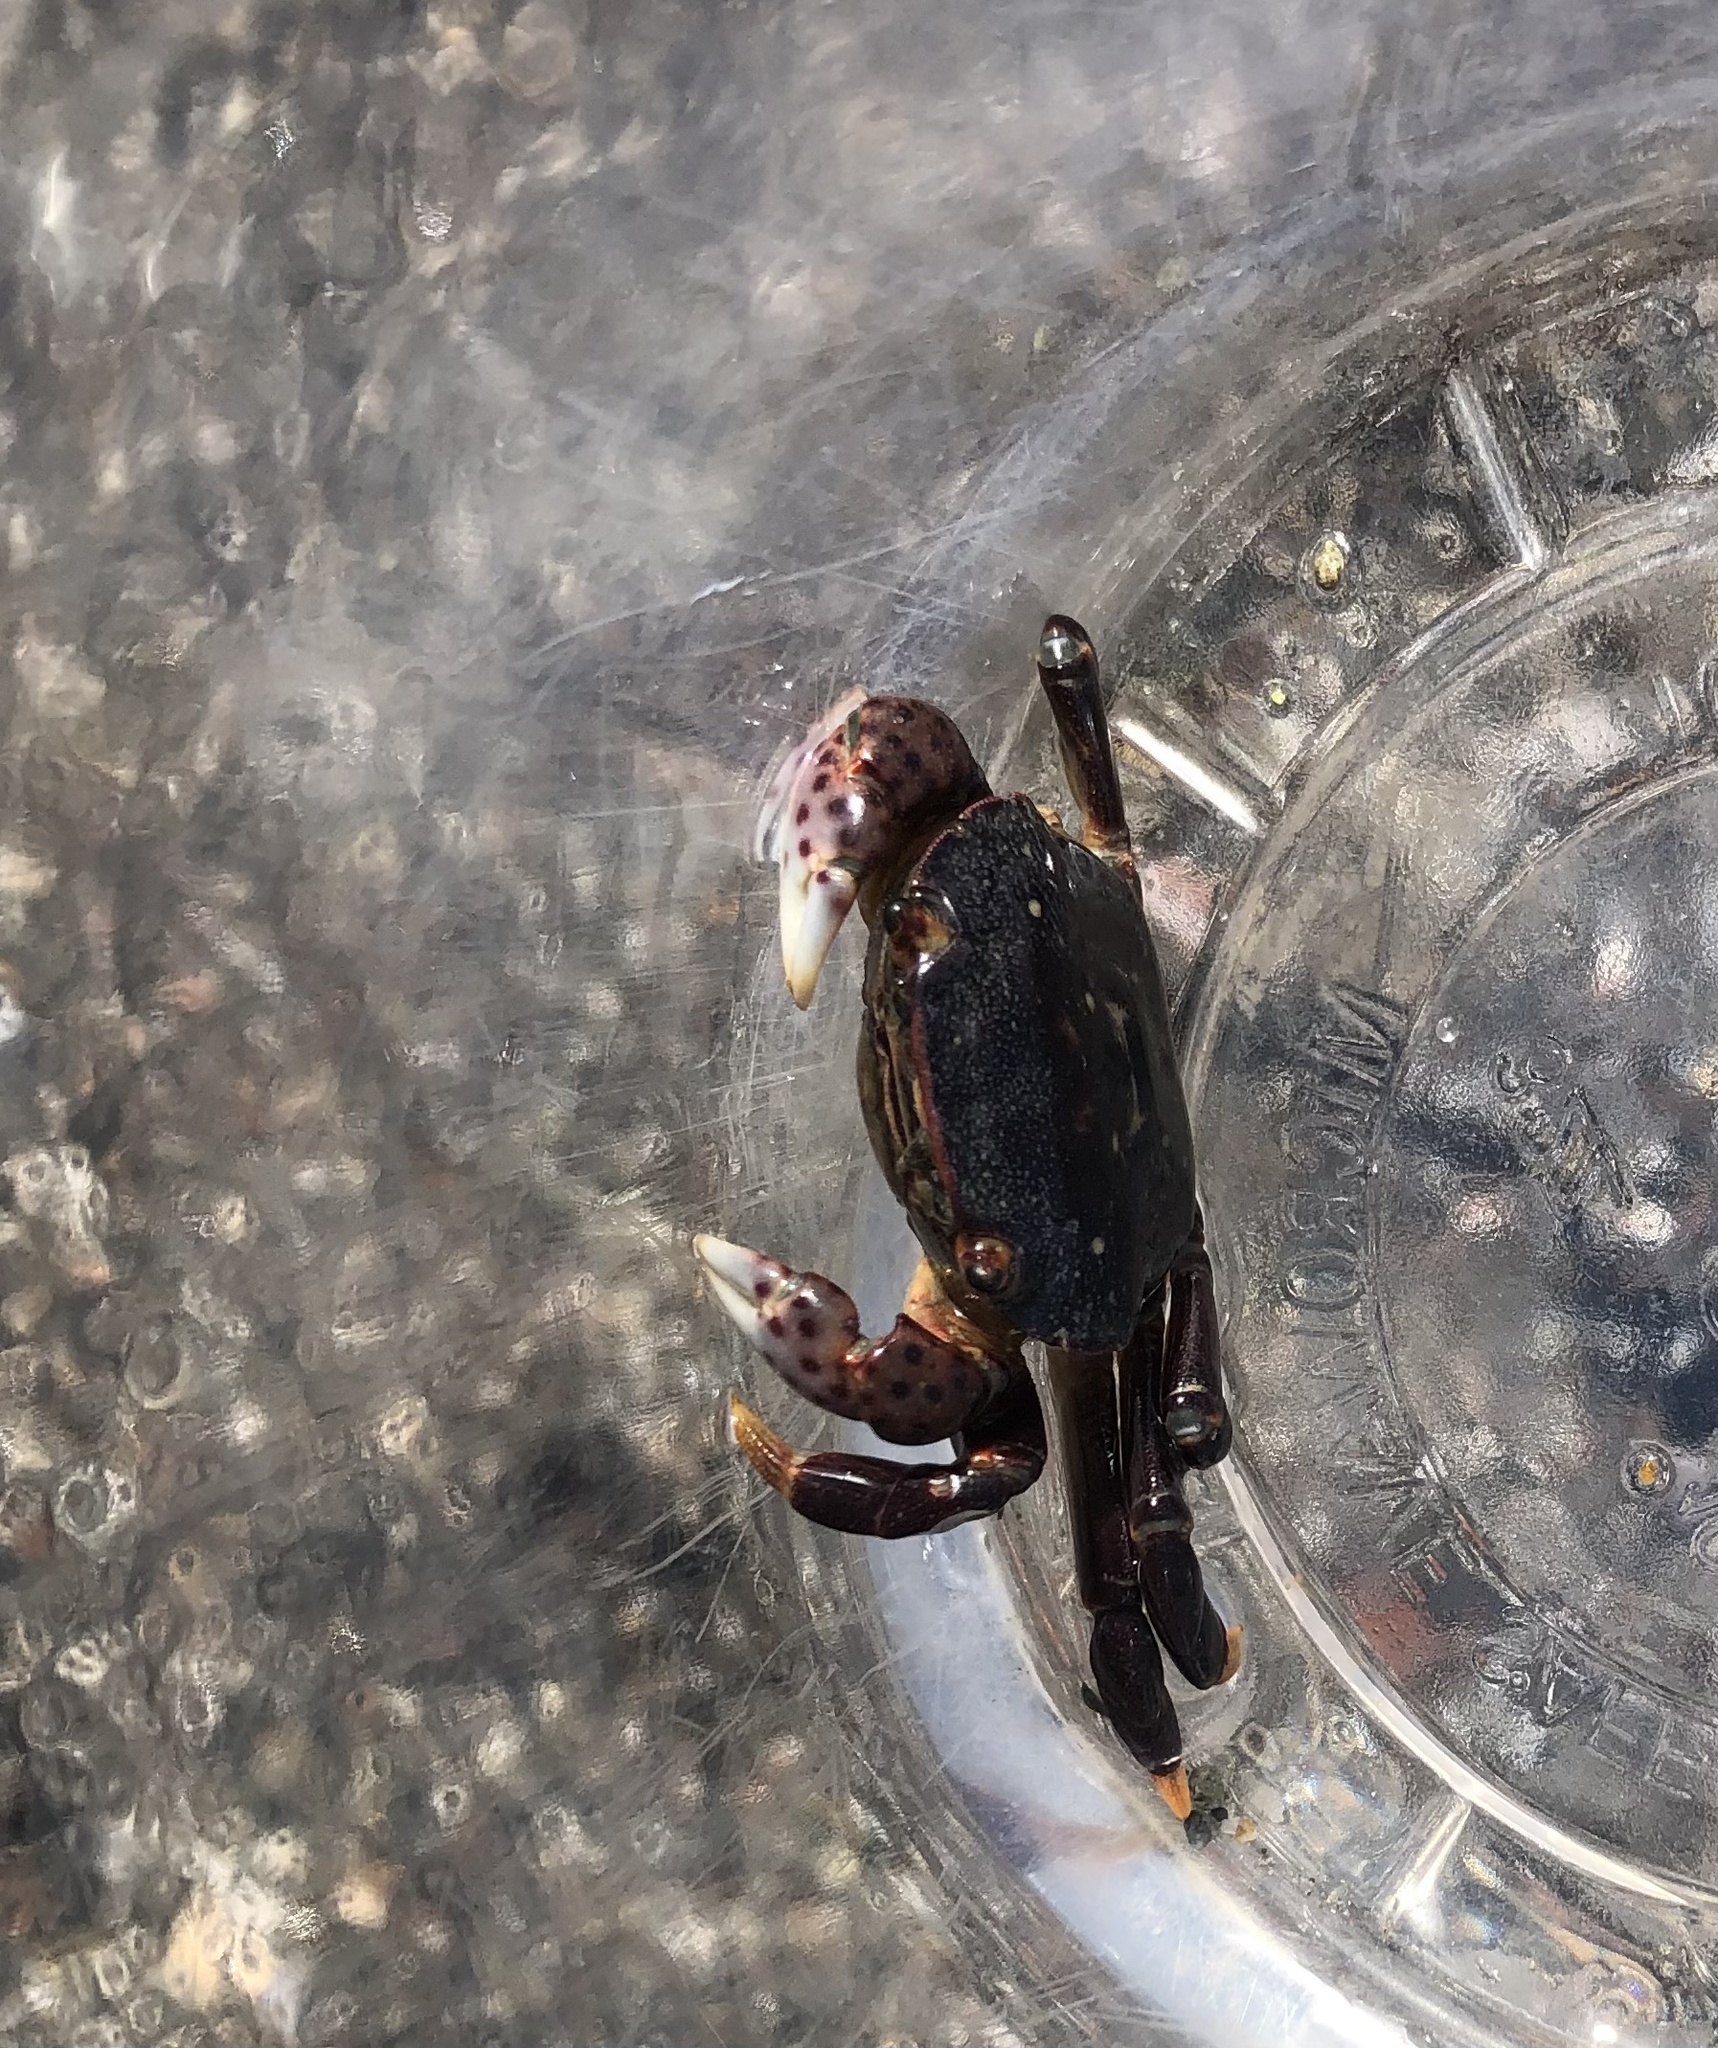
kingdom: Animalia
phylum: Arthropoda
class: Malacostraca
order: Decapoda
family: Varunidae
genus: Hemigrapsus
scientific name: Hemigrapsus nudus
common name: Purple shore crab
